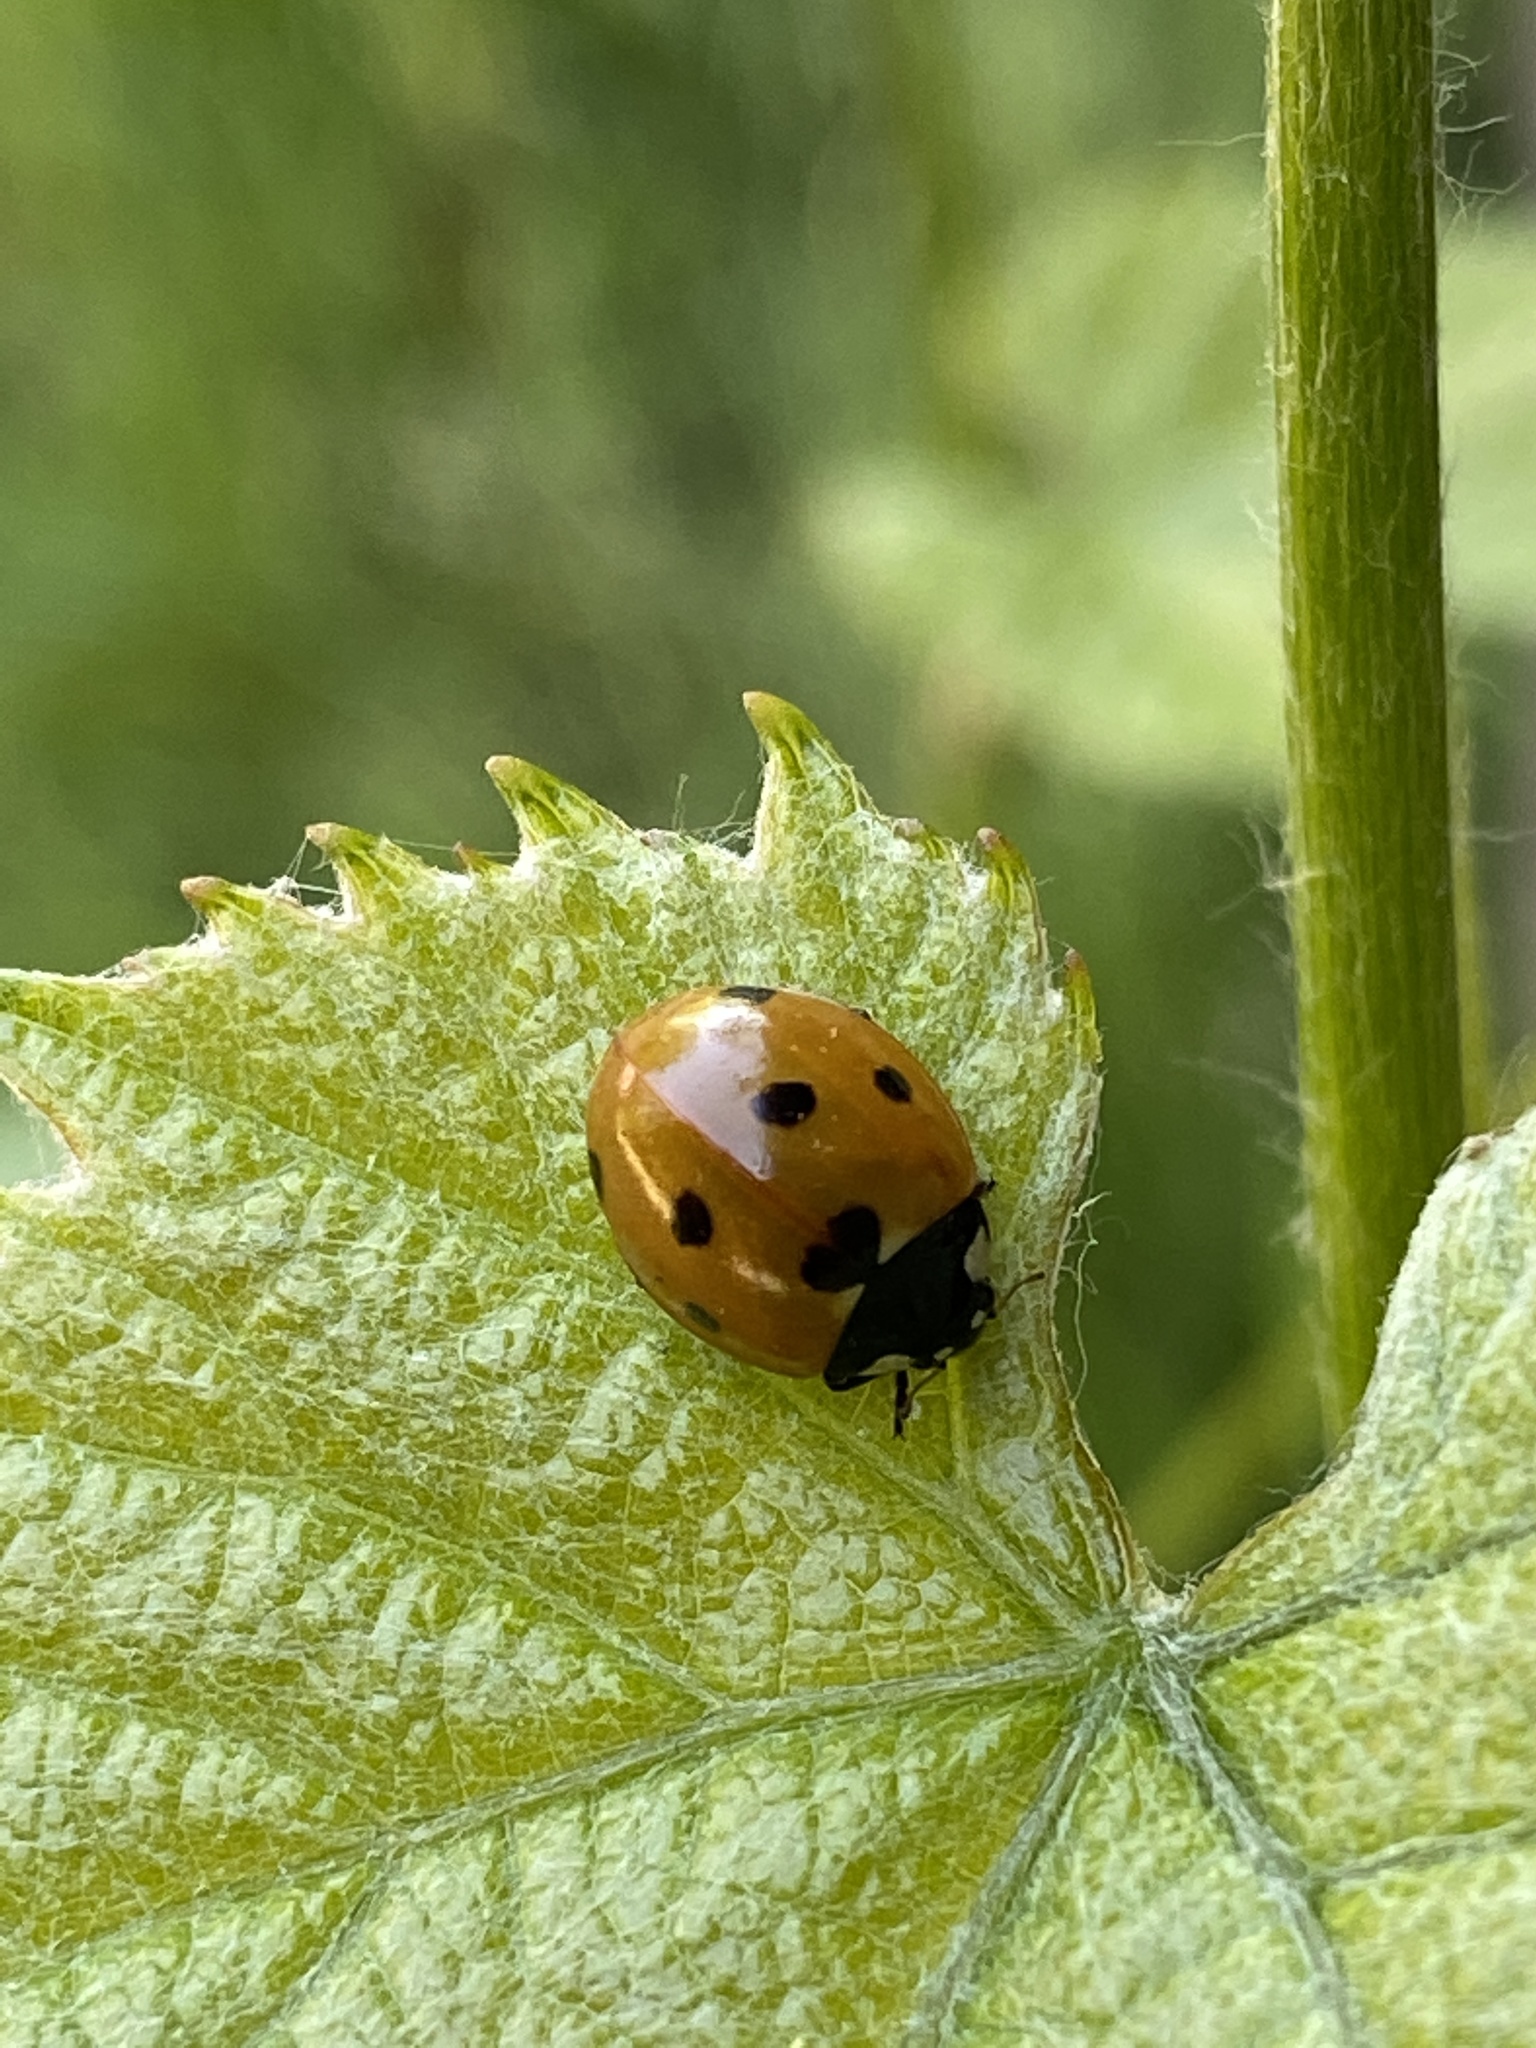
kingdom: Animalia
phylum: Arthropoda
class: Insecta
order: Coleoptera
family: Coccinellidae
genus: Coccinella
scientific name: Coccinella septempunctata
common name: Sevenspotted lady beetle
